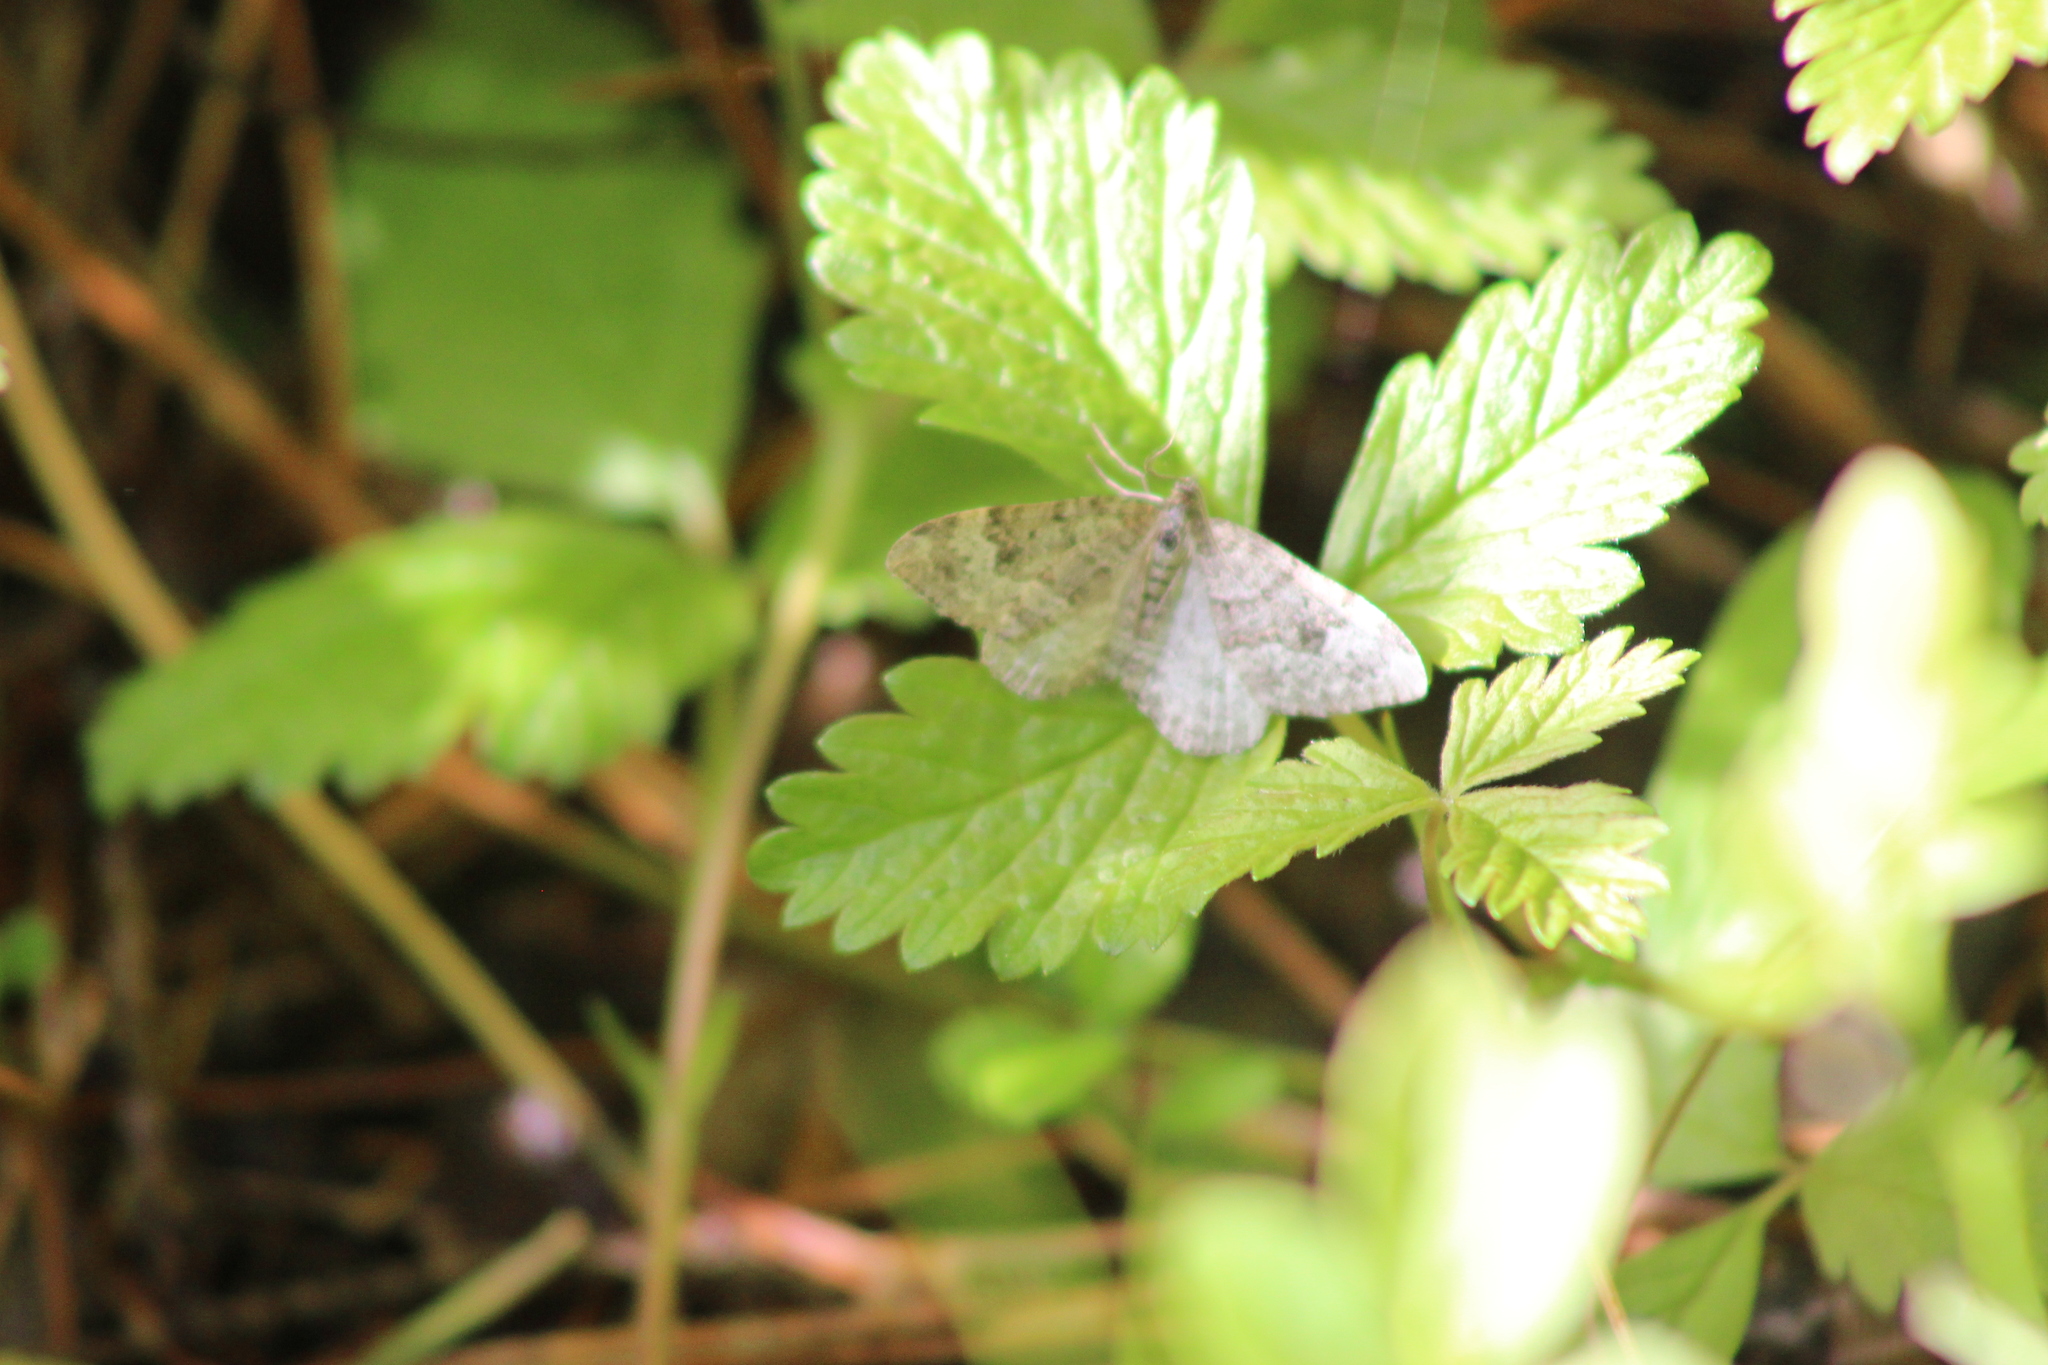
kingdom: Animalia
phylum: Arthropoda
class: Insecta
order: Lepidoptera
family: Geometridae
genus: Xanthorhoe
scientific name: Xanthorhoe annotinata
